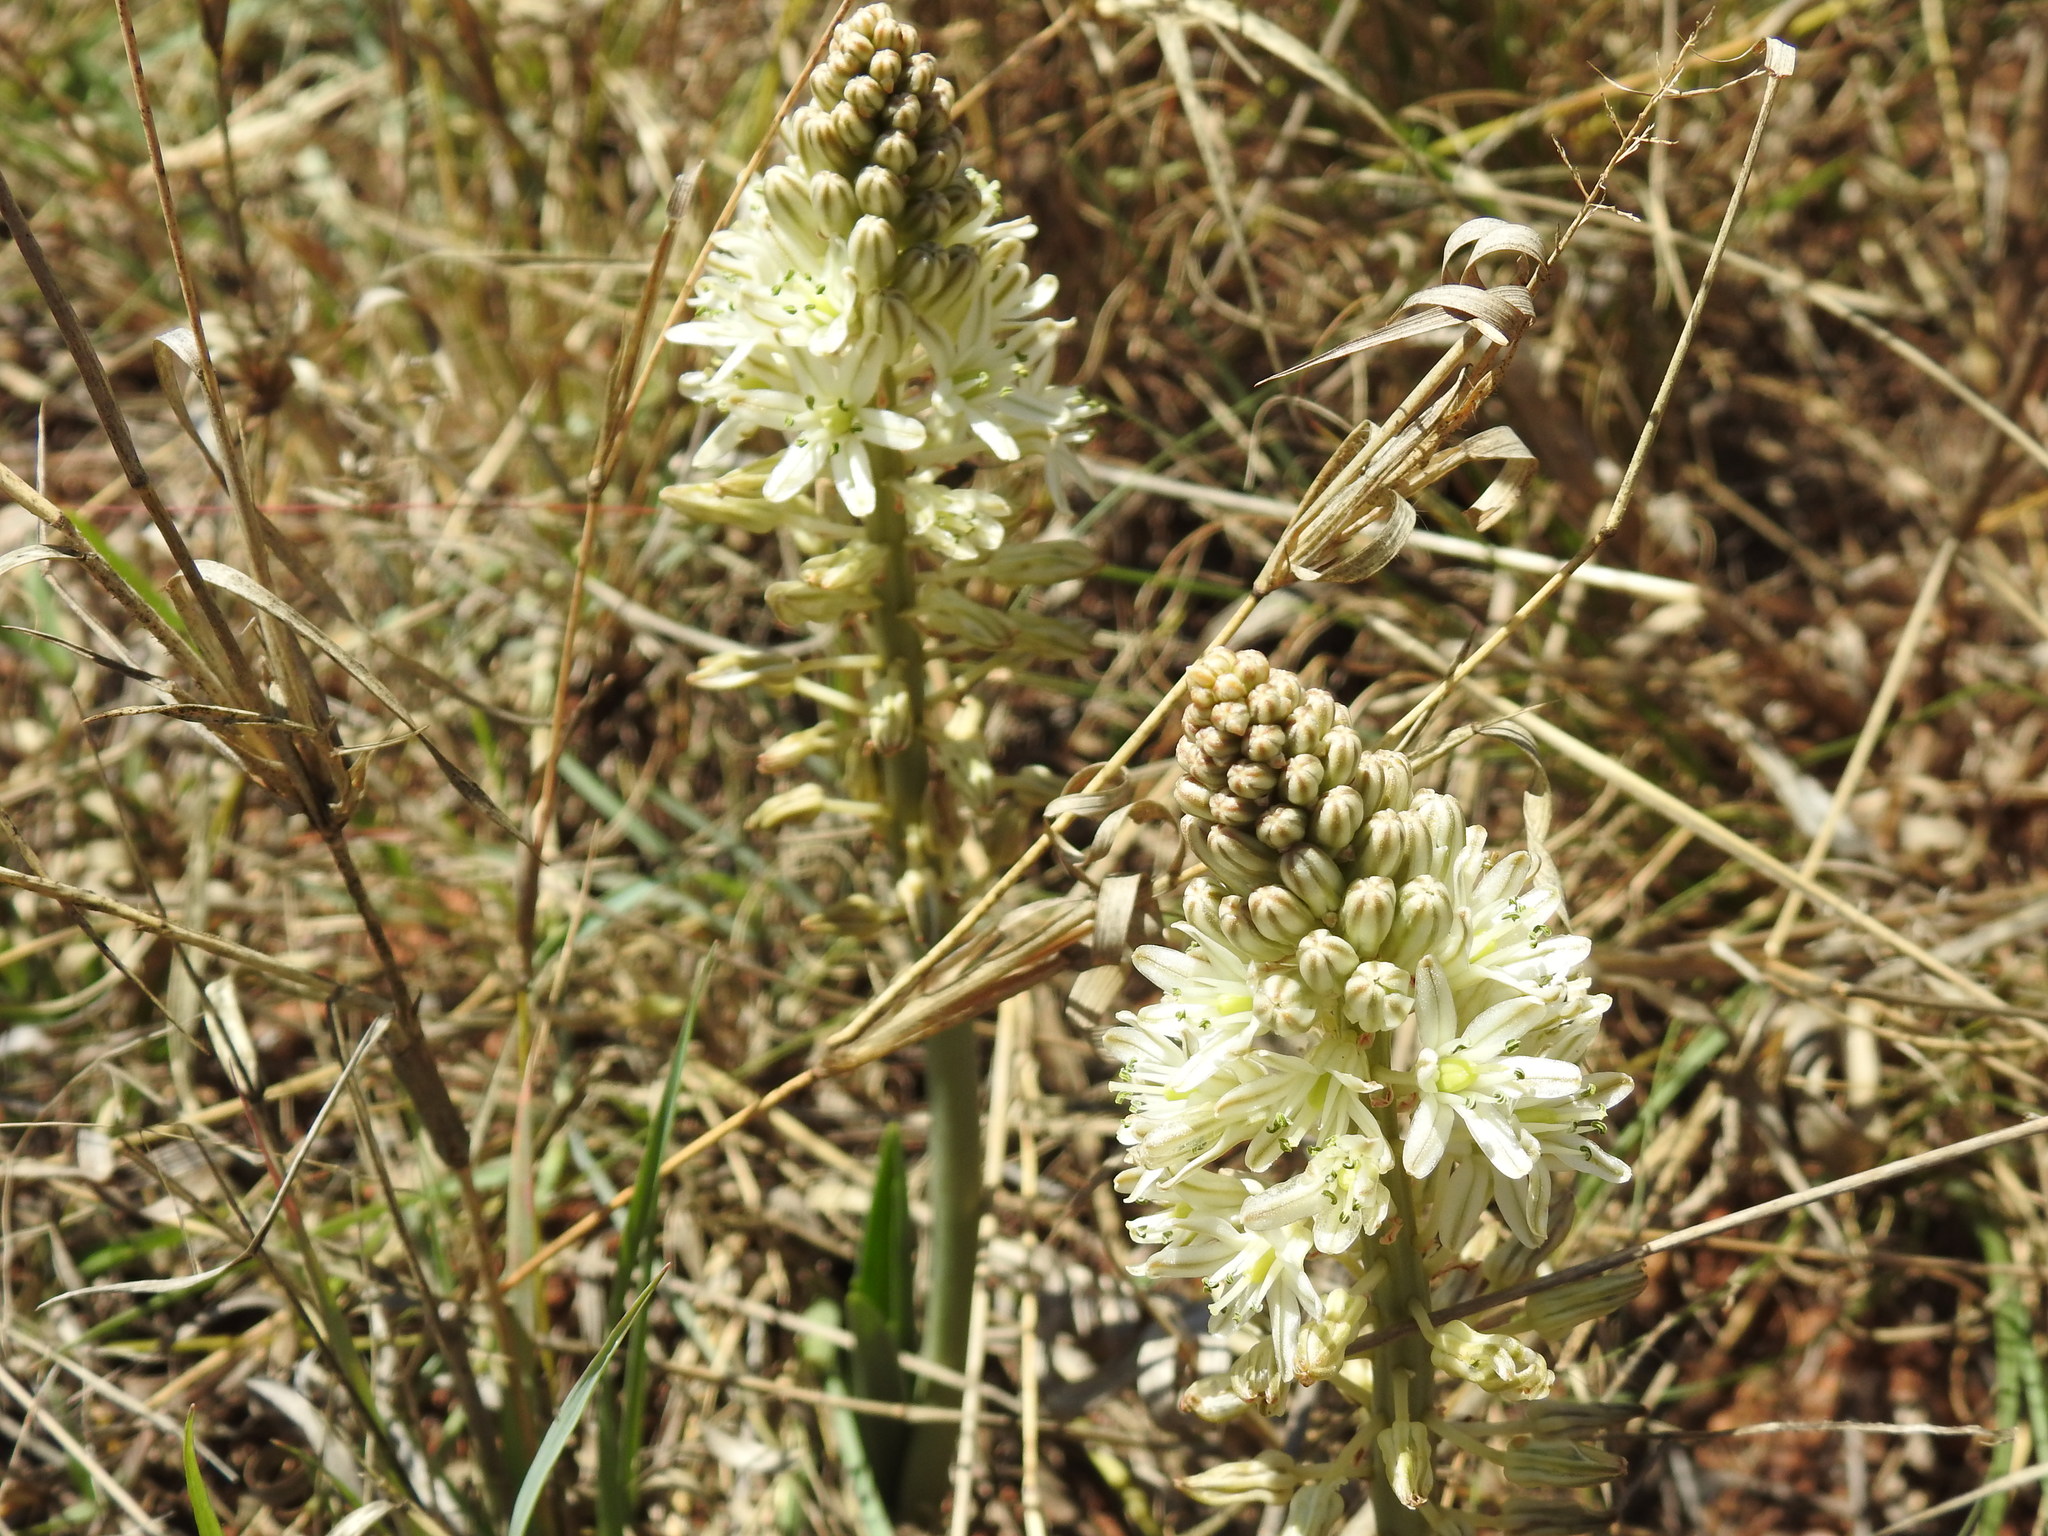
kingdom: Plantae
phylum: Tracheophyta
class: Liliopsida
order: Asparagales
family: Asparagaceae
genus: Drimia
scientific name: Drimia sanguinea
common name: Transvaal slangkop
